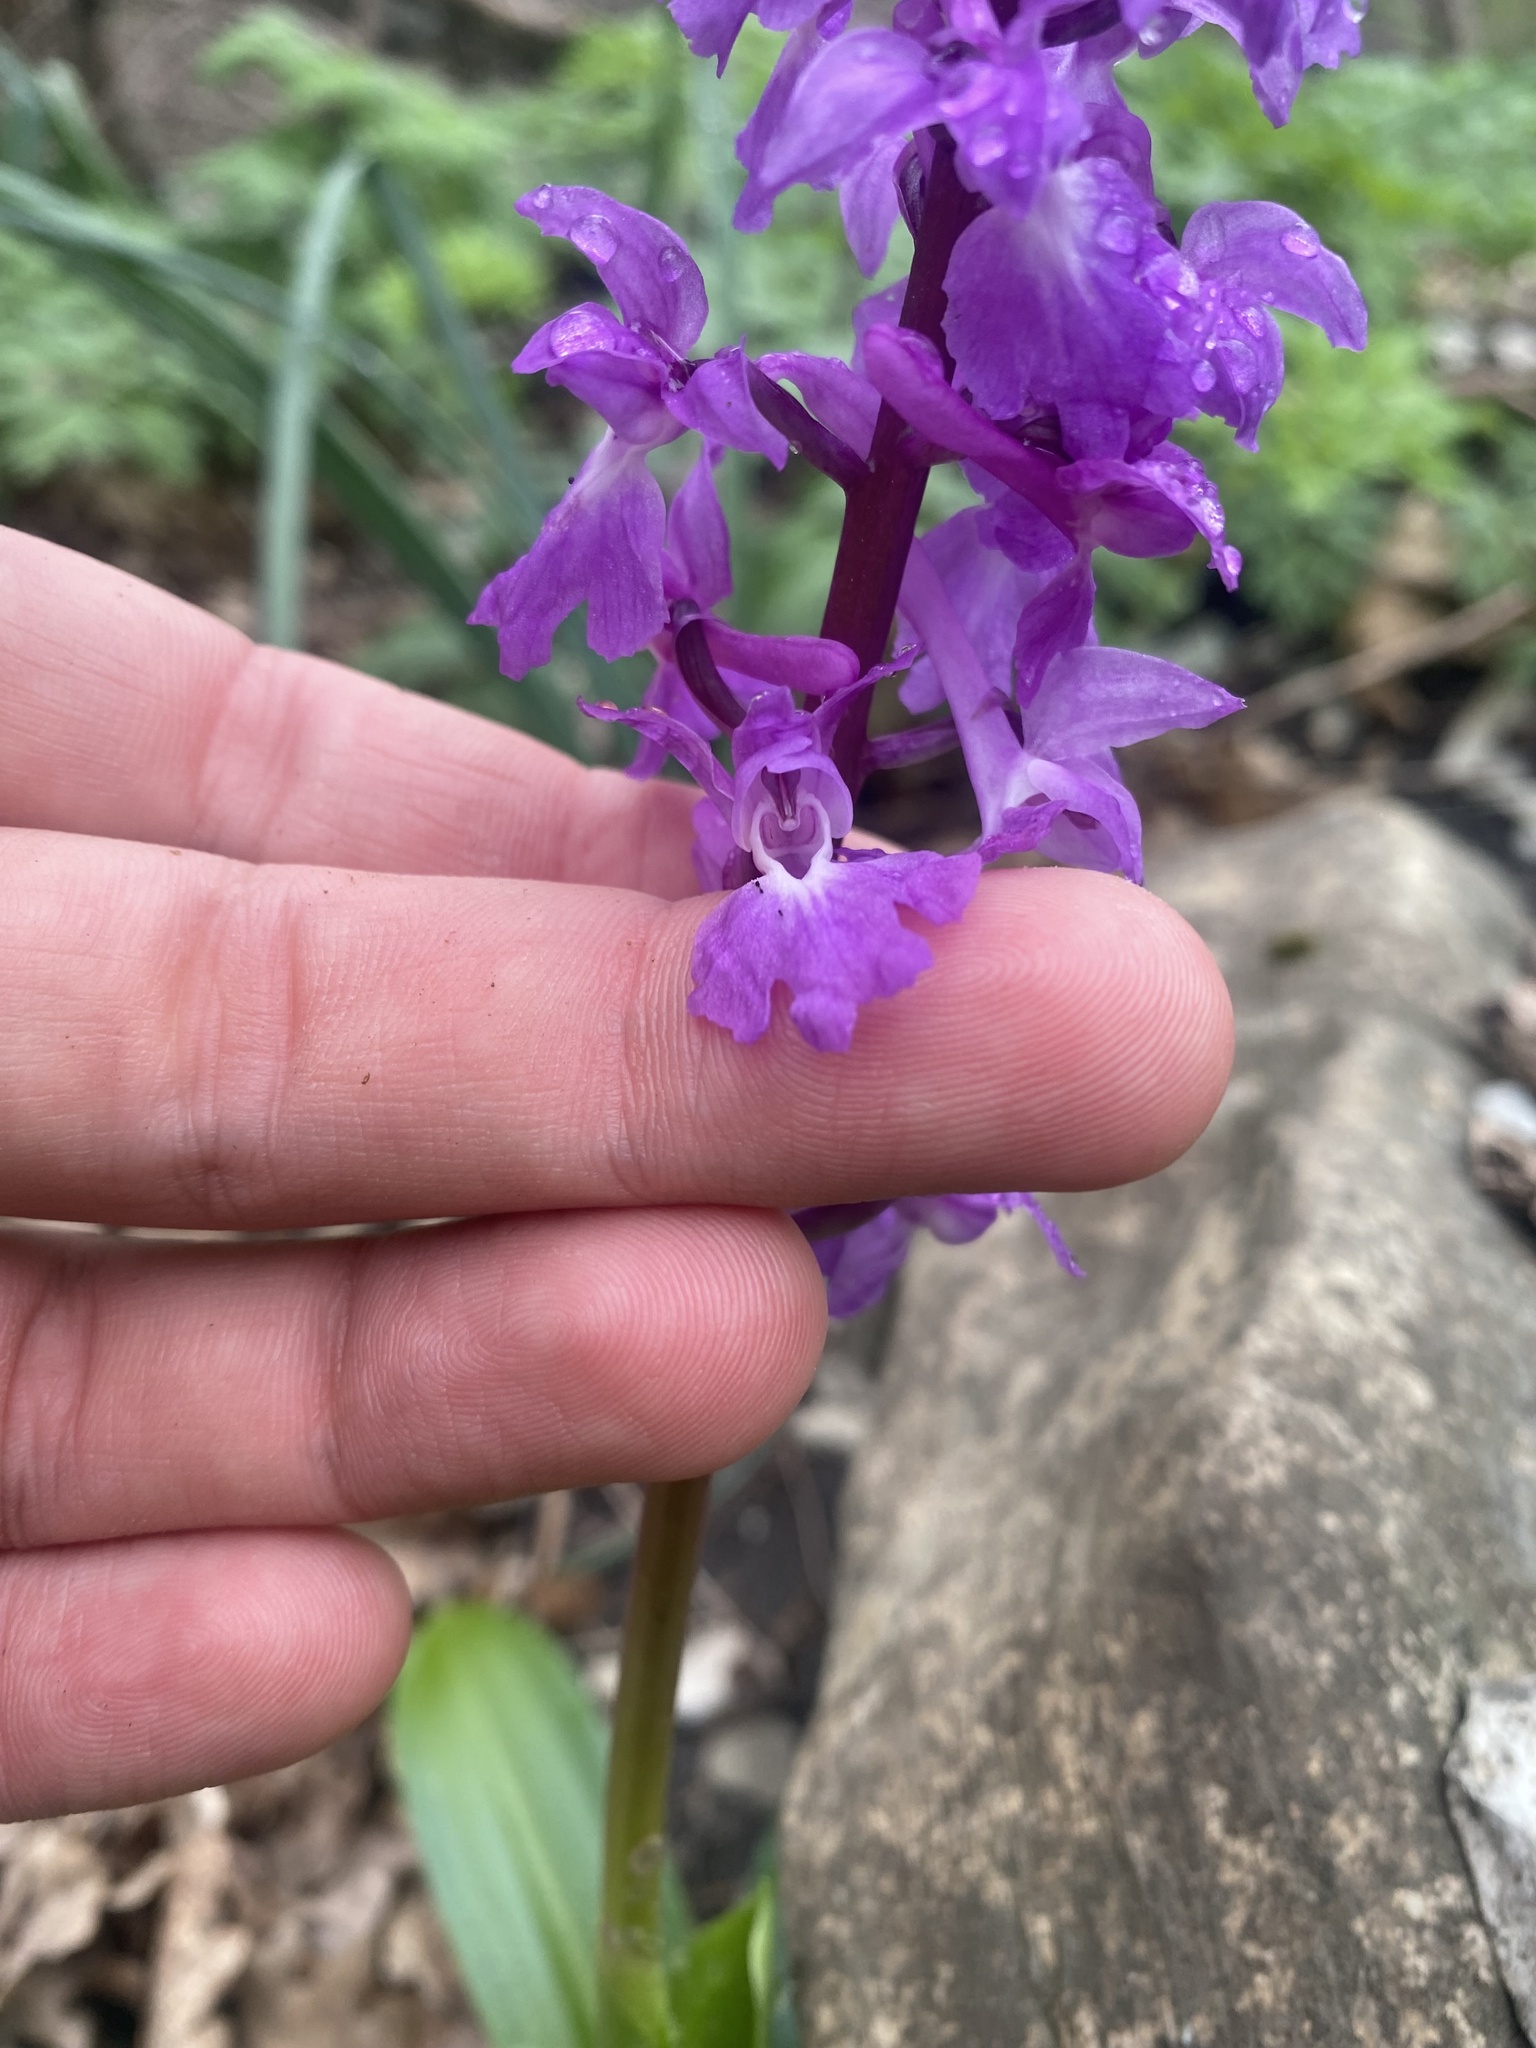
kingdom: Plantae
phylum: Tracheophyta
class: Liliopsida
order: Asparagales
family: Orchidaceae
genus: Orchis
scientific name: Orchis mascula
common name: Early-purple orchid
